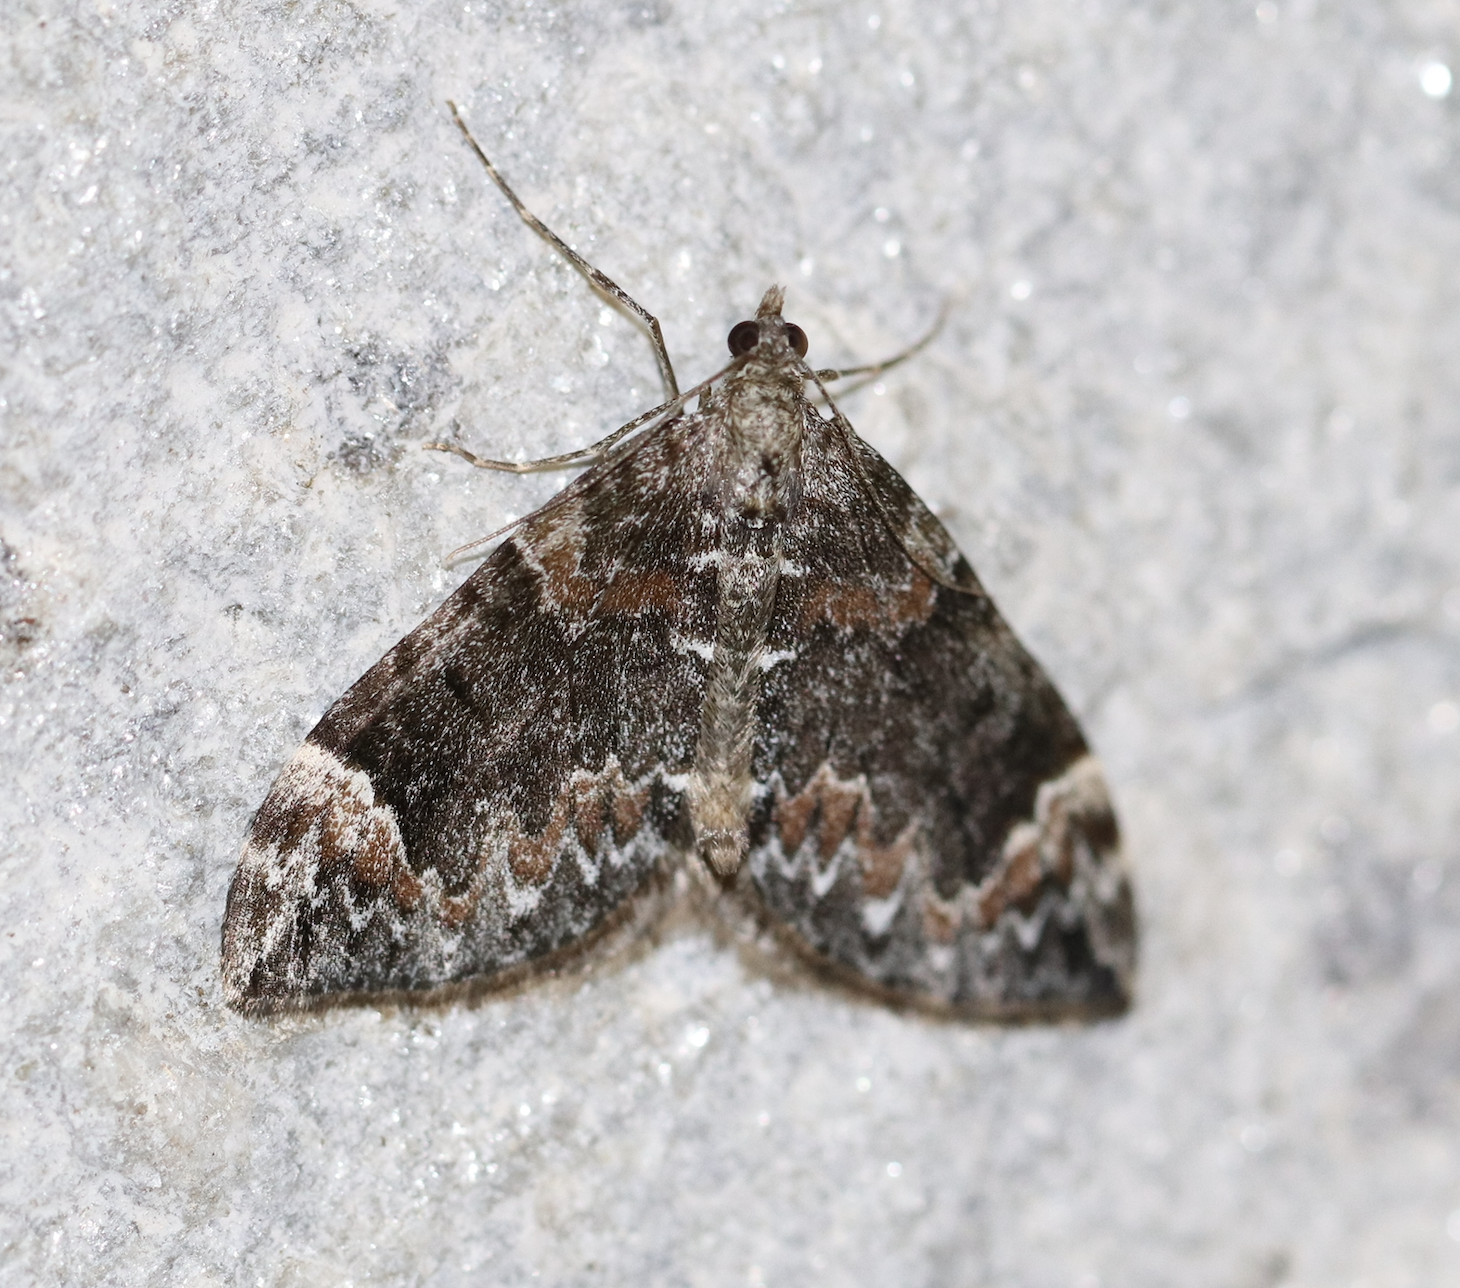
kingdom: Animalia
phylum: Arthropoda
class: Insecta
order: Lepidoptera
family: Geometridae
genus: Dysstroma
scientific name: Dysstroma citrata
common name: Dark marbled carpet
